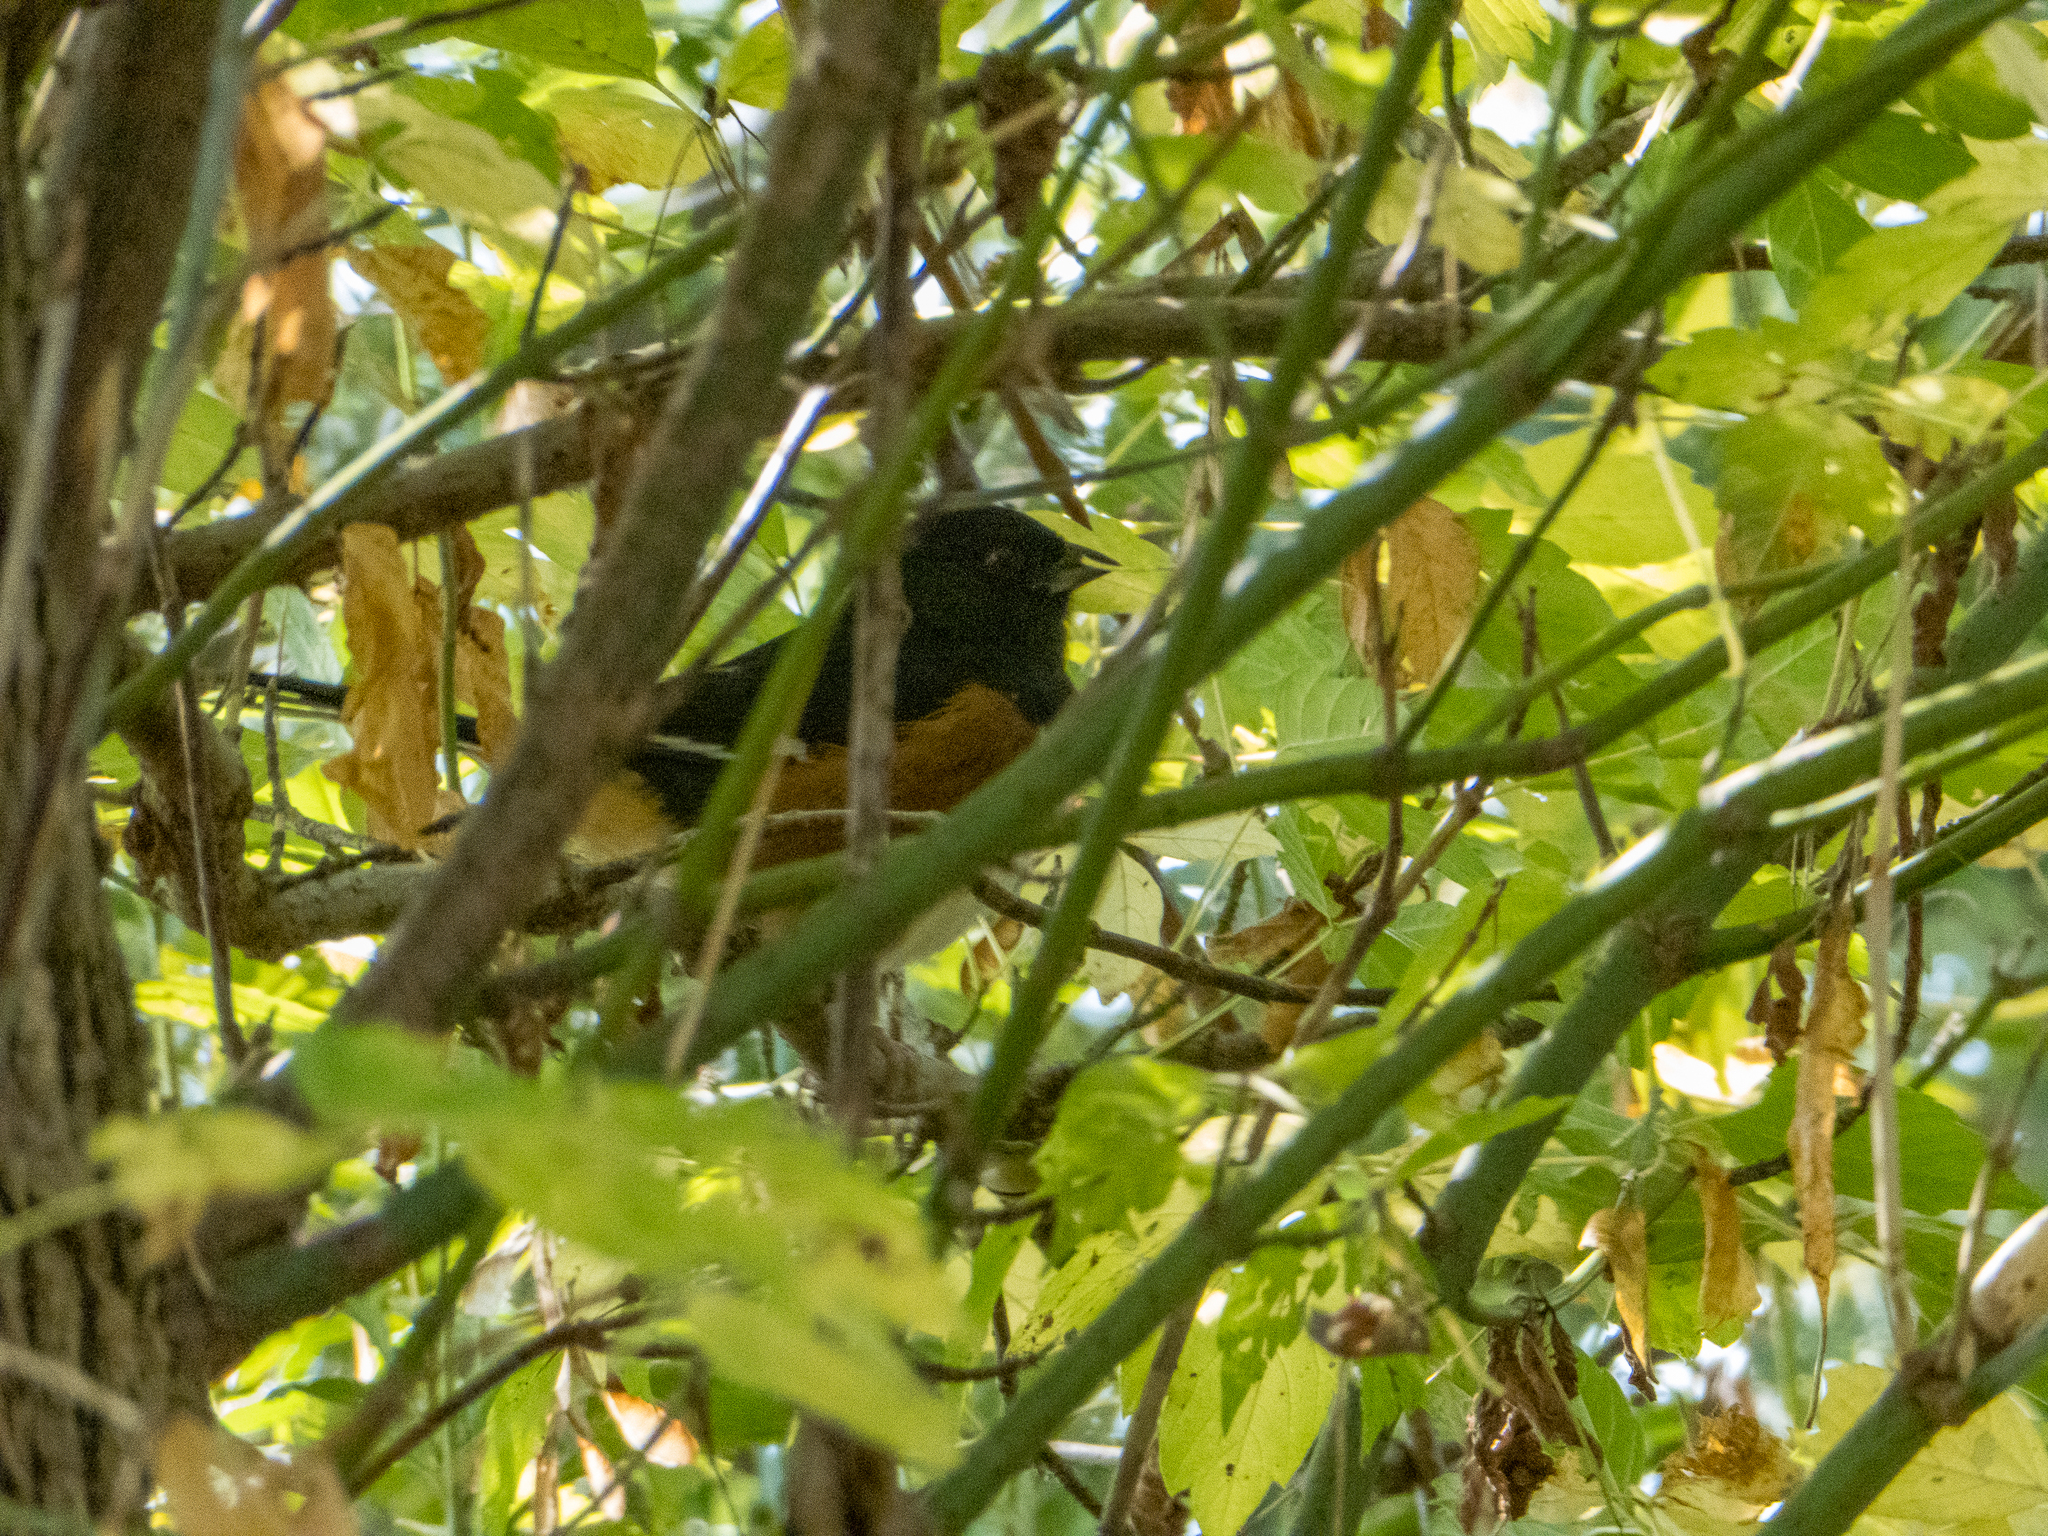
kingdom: Animalia
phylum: Chordata
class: Aves
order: Passeriformes
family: Passerellidae
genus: Pipilo
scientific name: Pipilo erythrophthalmus
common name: Eastern towhee
